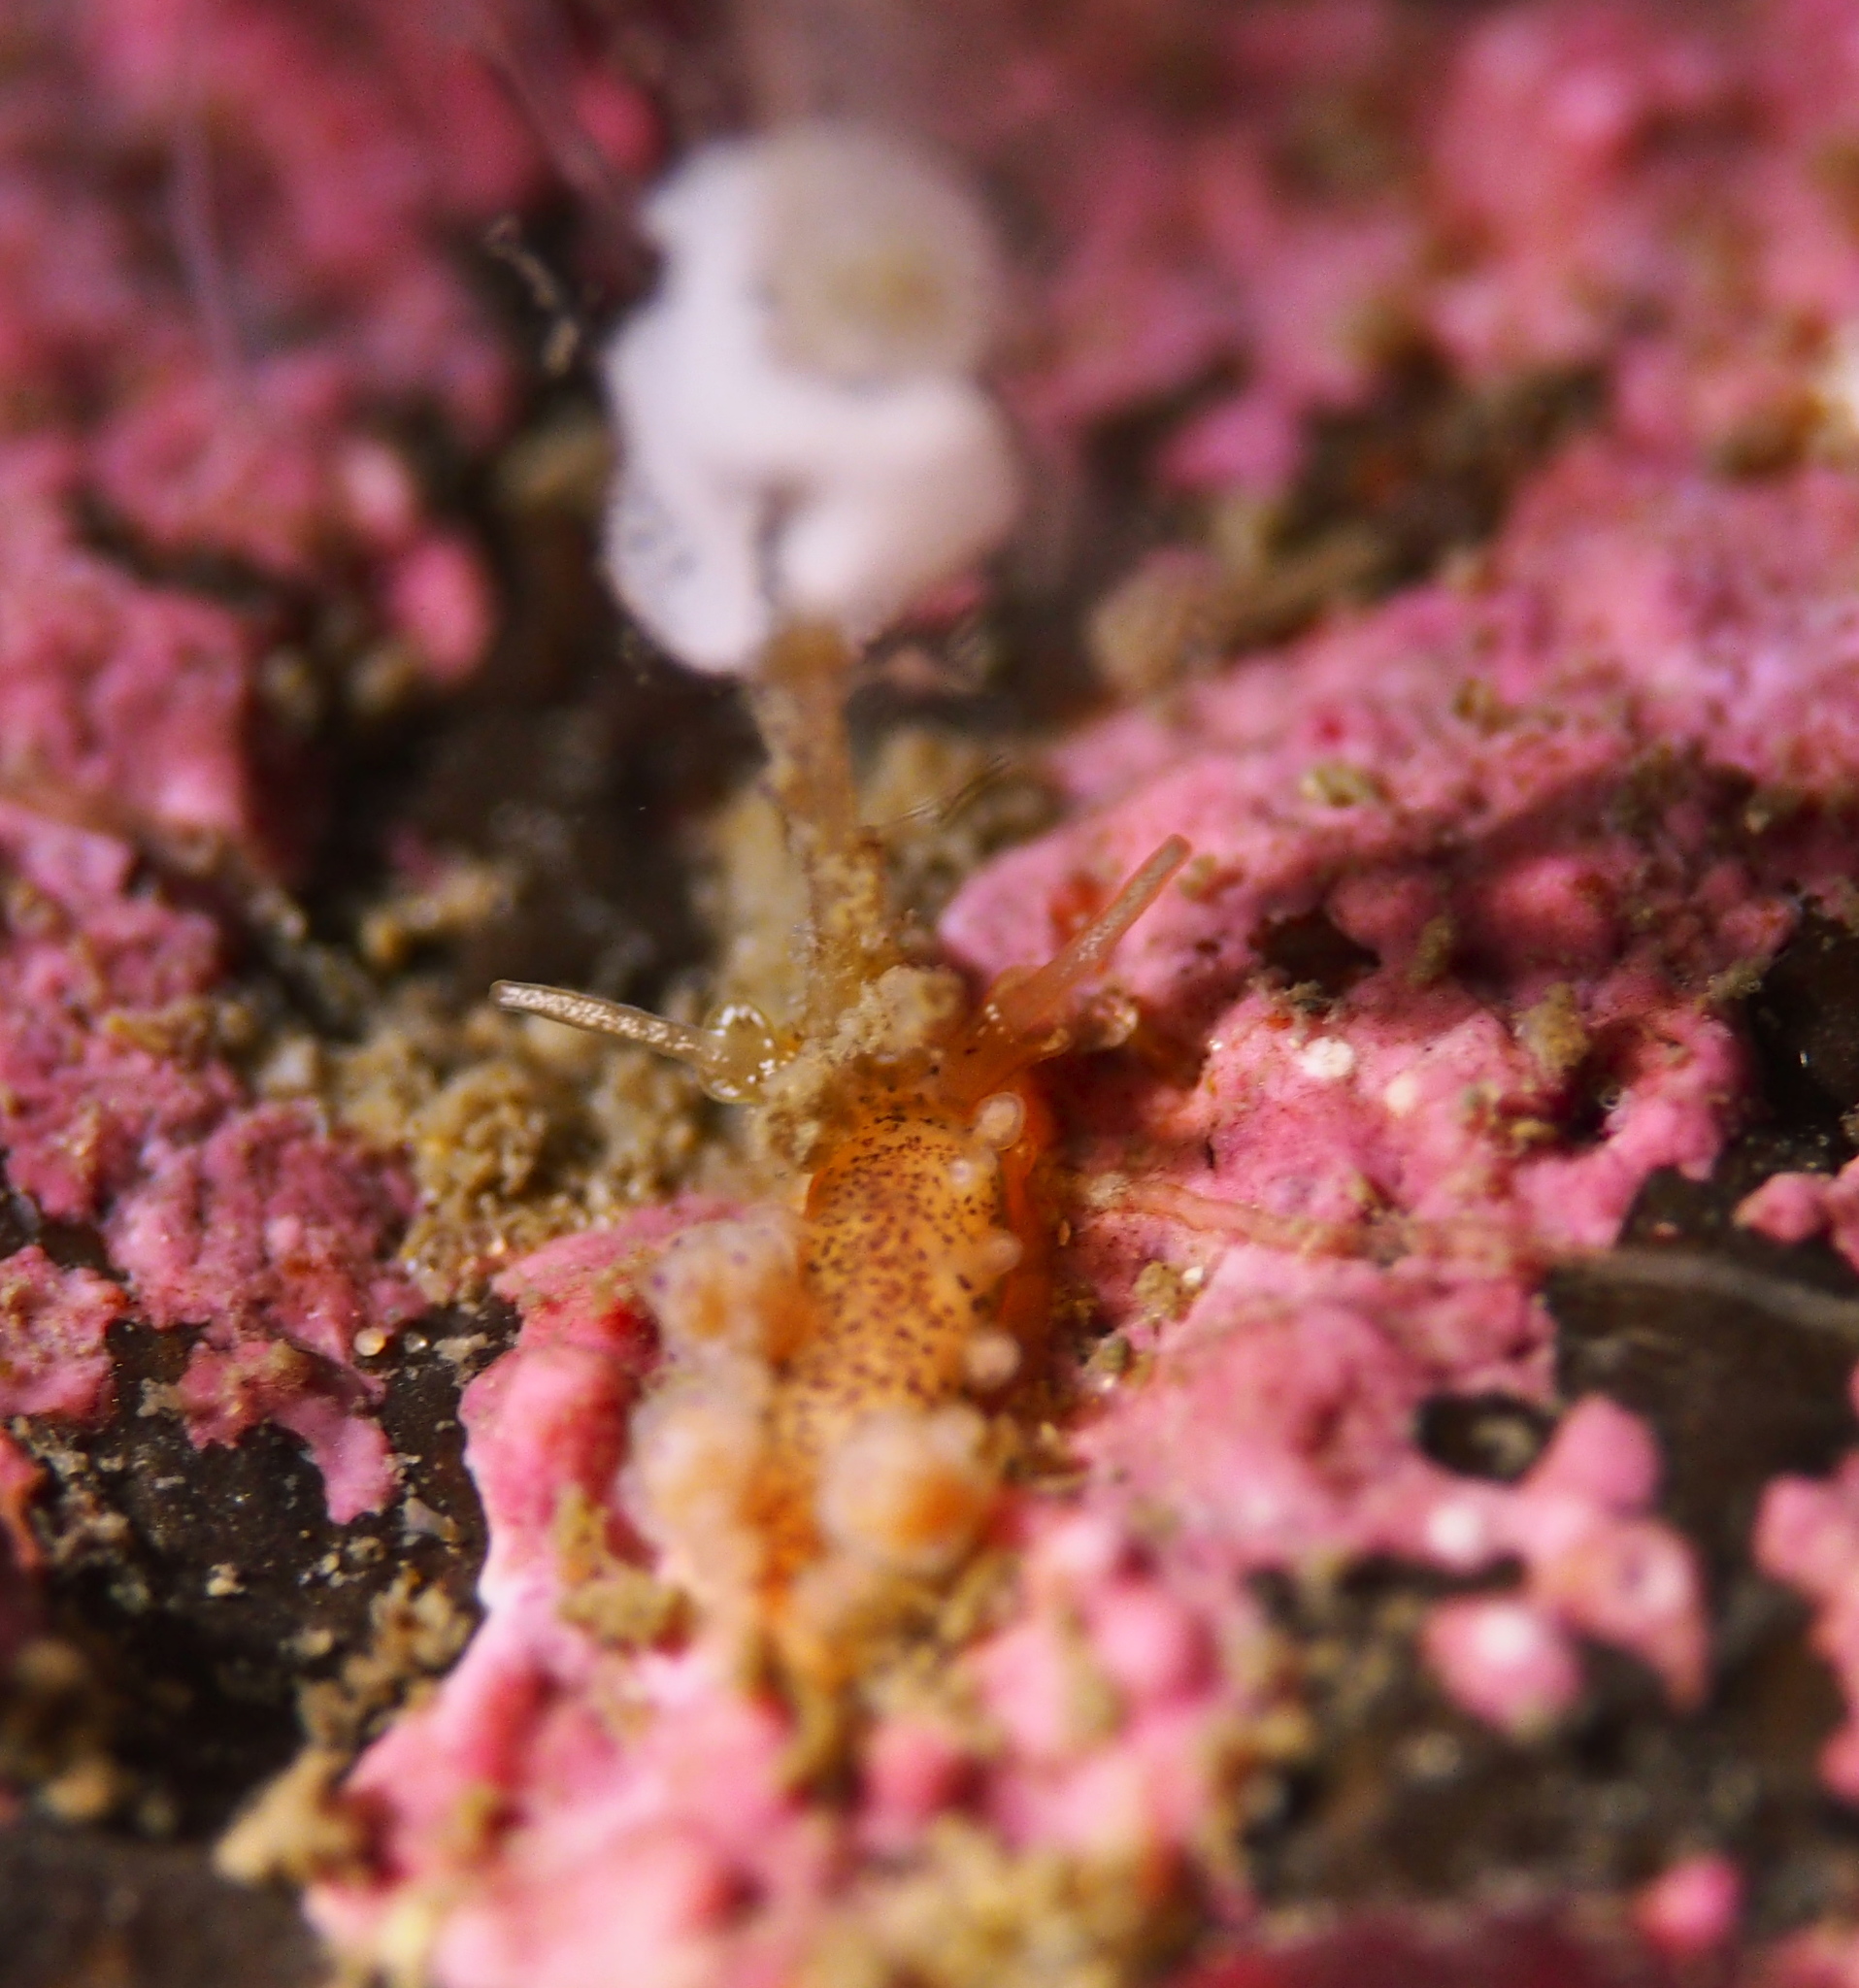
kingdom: Animalia
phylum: Mollusca
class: Gastropoda
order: Nudibranchia
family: Dotidae
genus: Doto
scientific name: Doto dunnei
